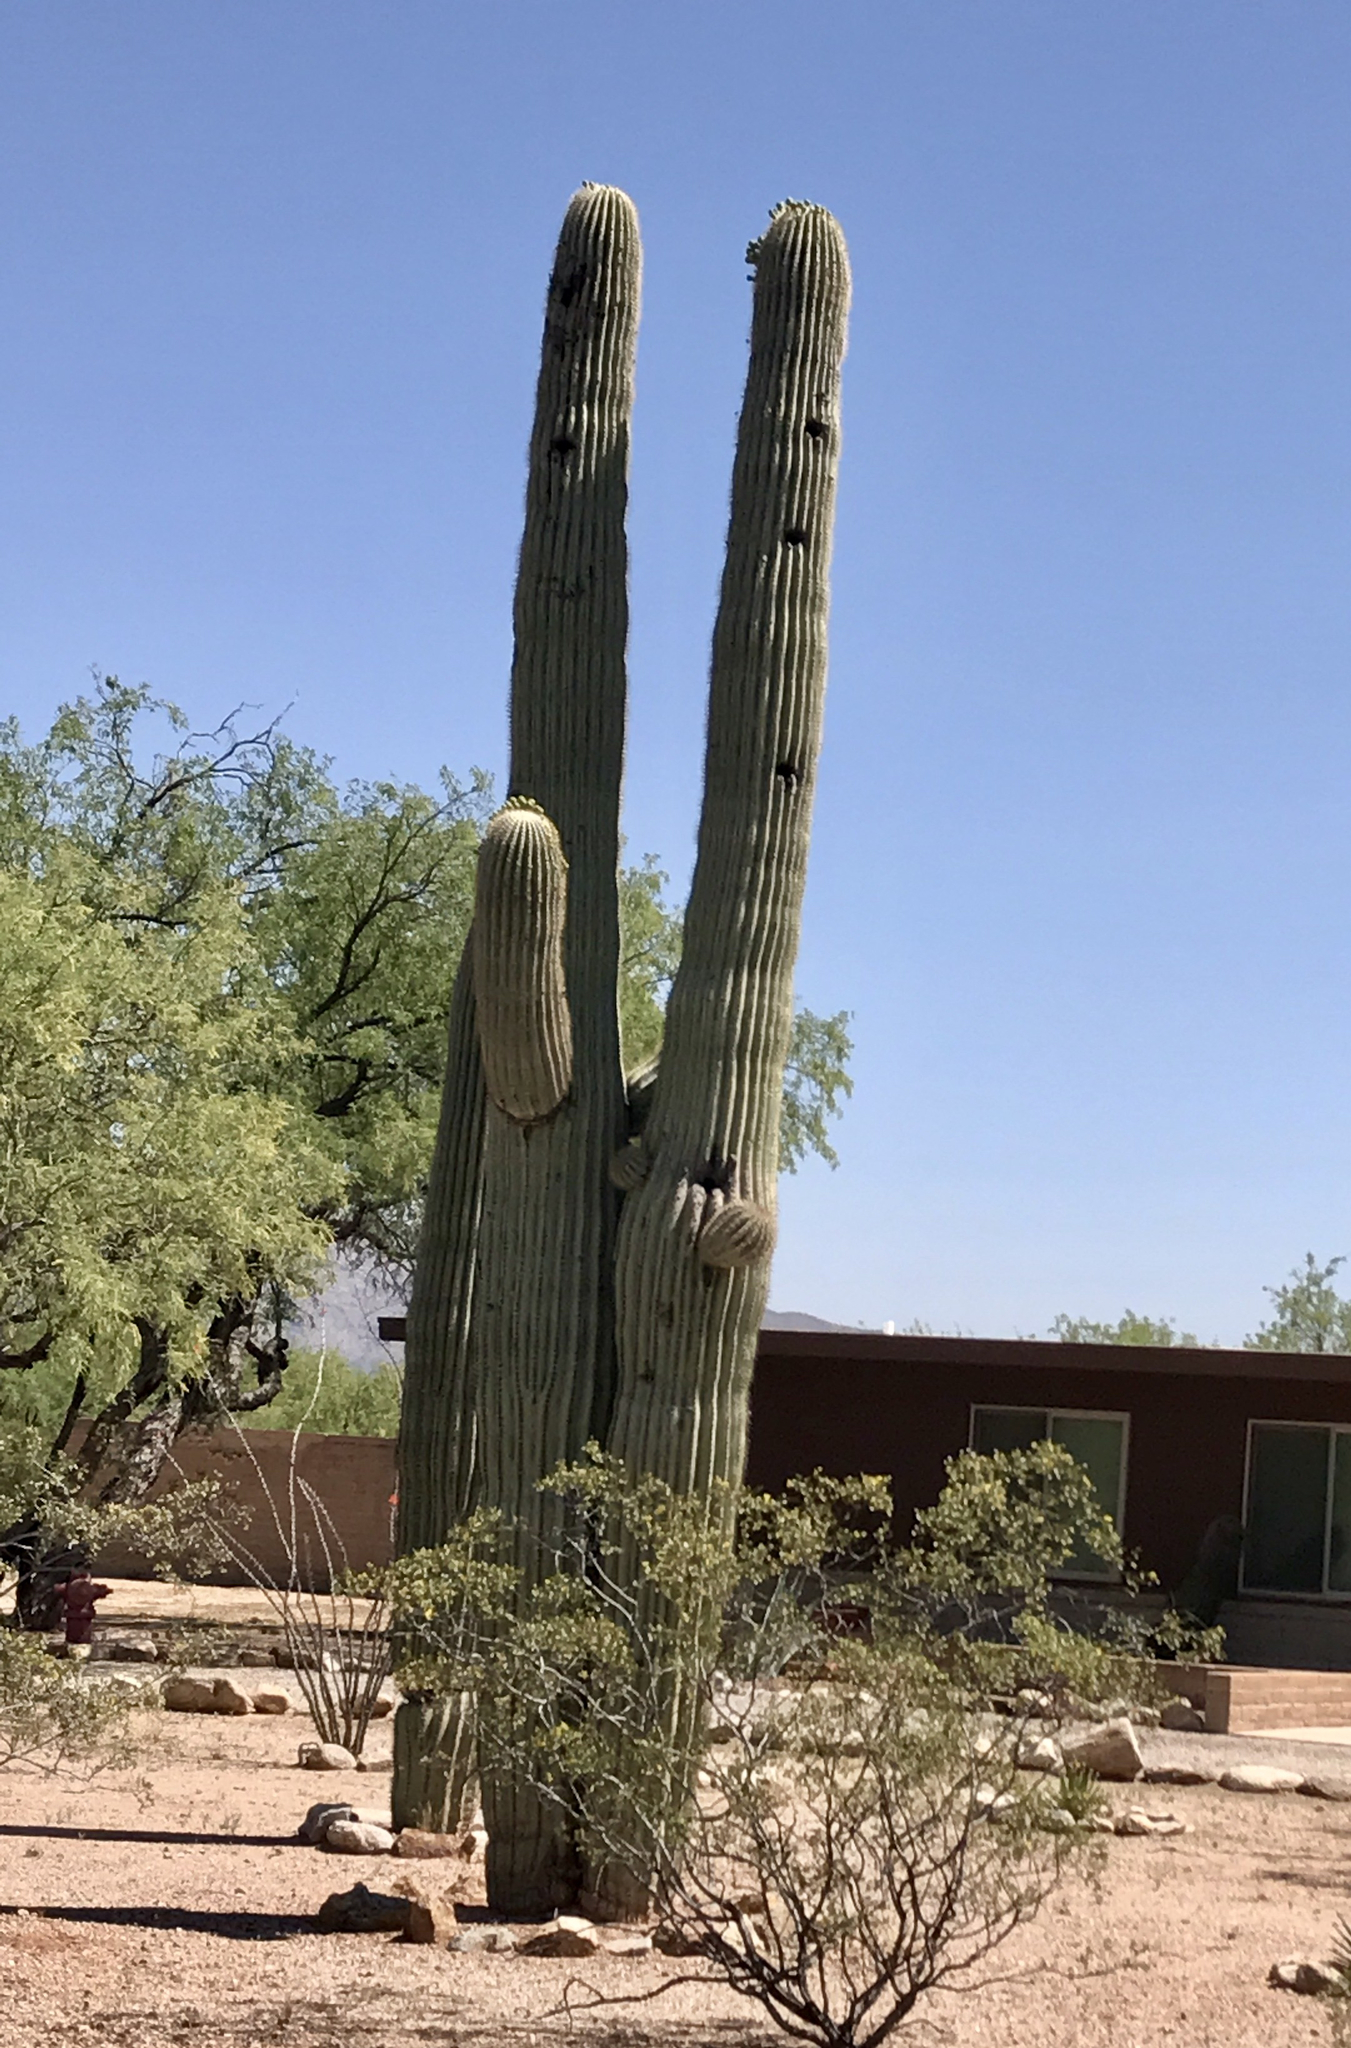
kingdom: Plantae
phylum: Tracheophyta
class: Magnoliopsida
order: Caryophyllales
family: Cactaceae
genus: Carnegiea
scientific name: Carnegiea gigantea
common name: Saguaro
